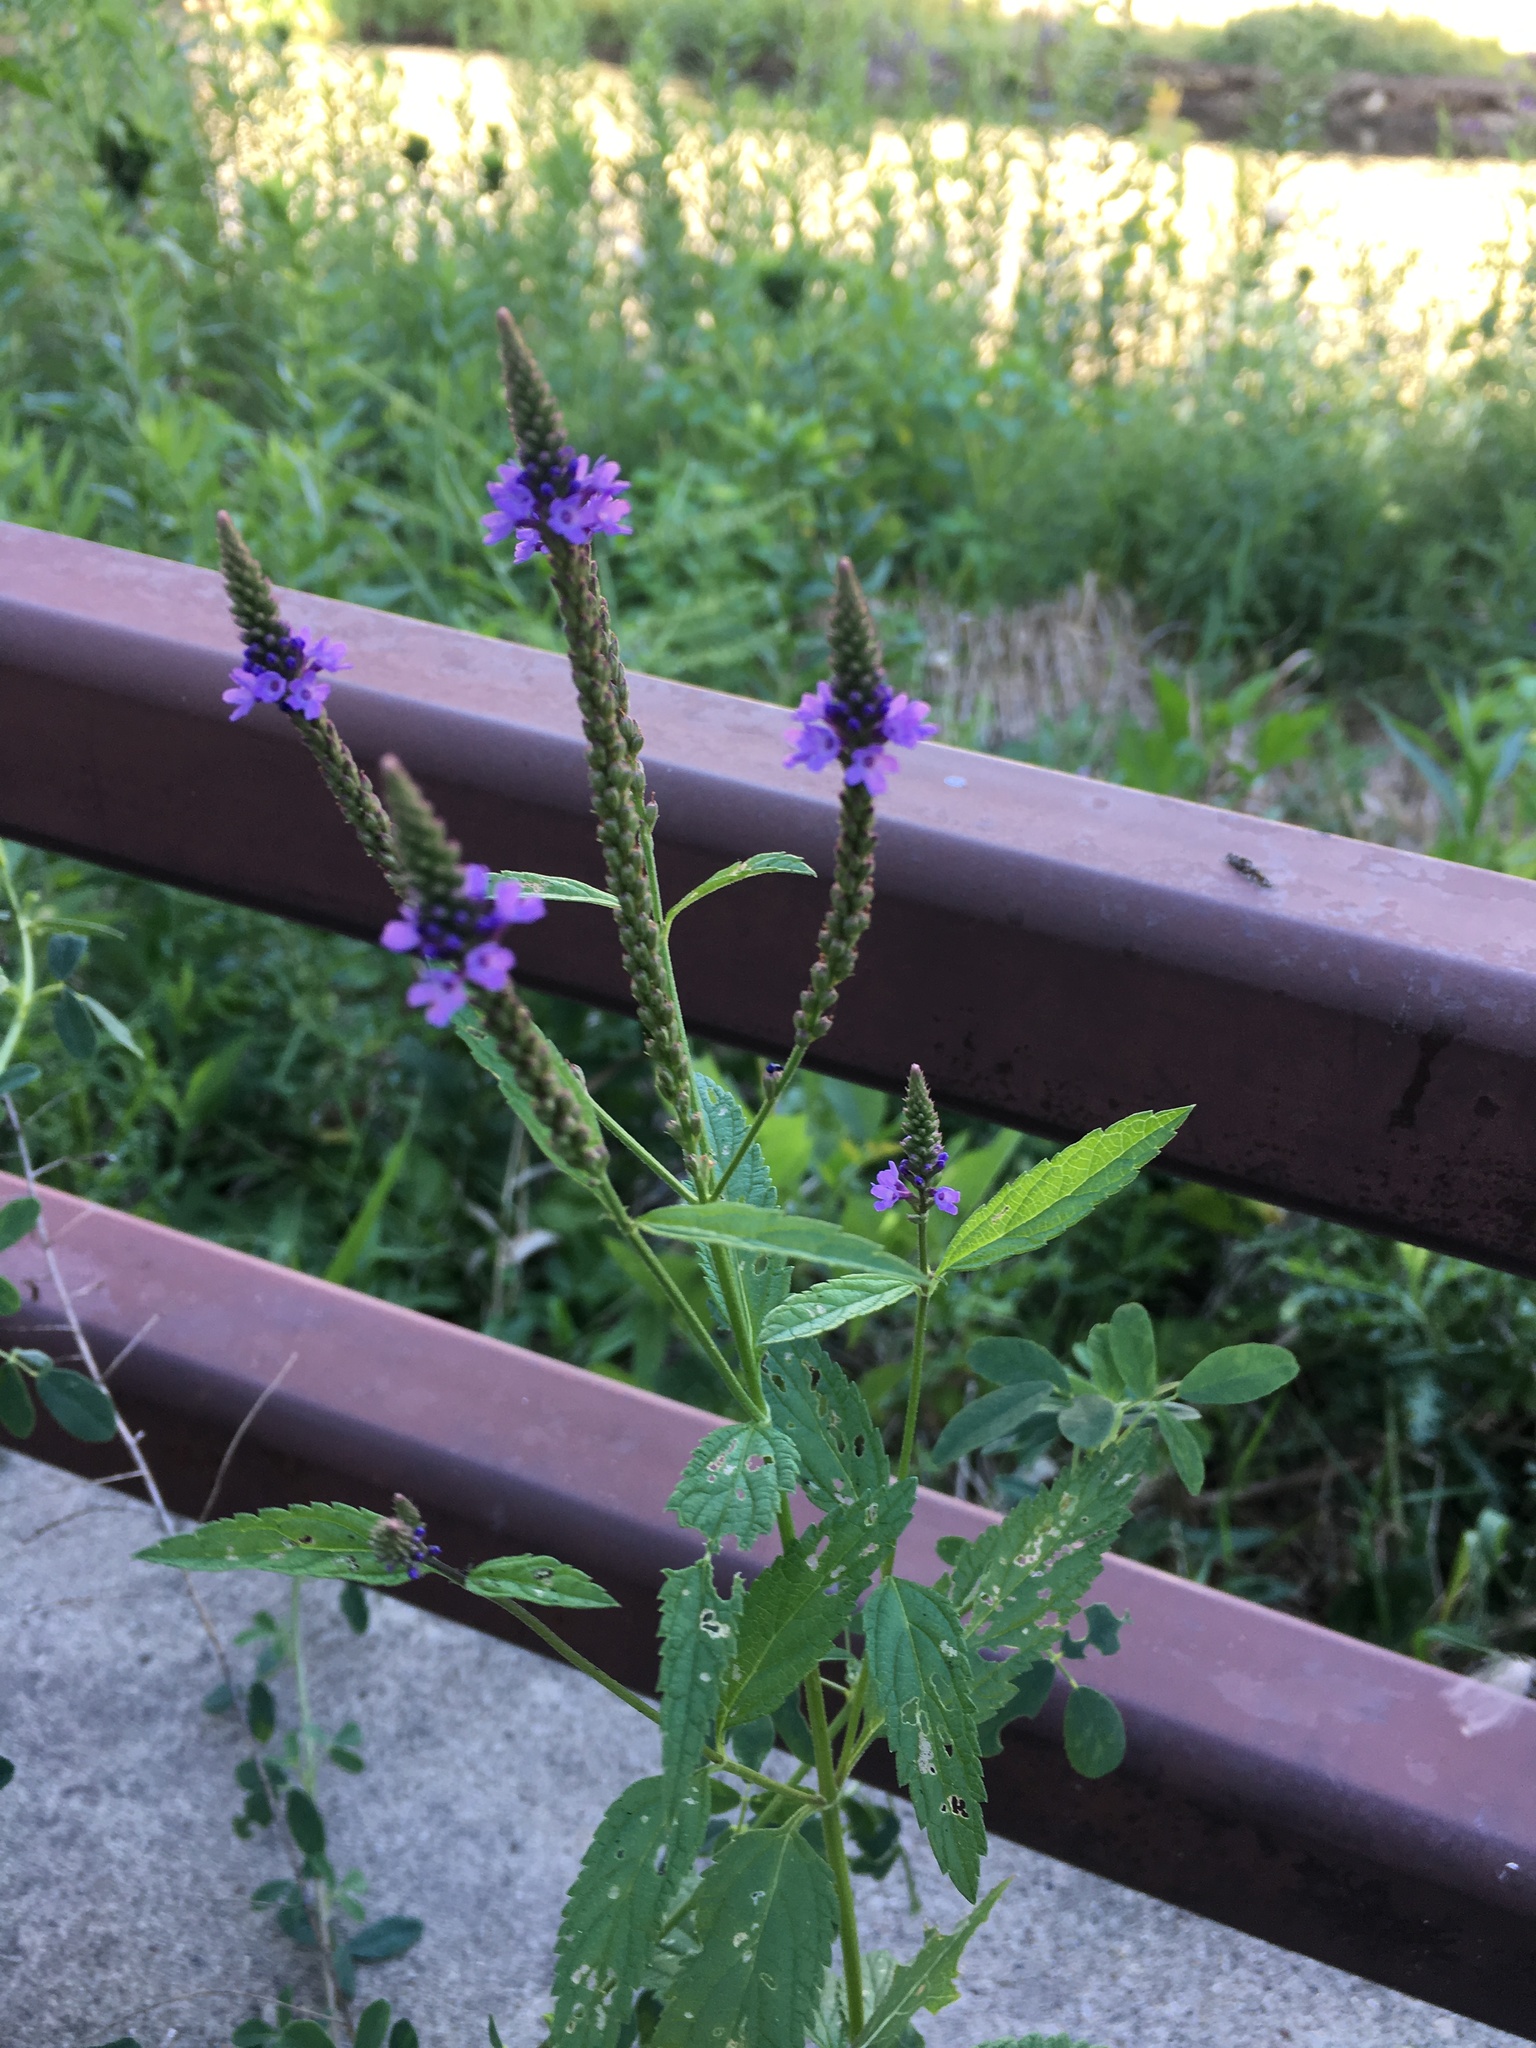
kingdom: Plantae
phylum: Tracheophyta
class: Magnoliopsida
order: Lamiales
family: Verbenaceae
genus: Verbena
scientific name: Verbena hastata
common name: American blue vervain
